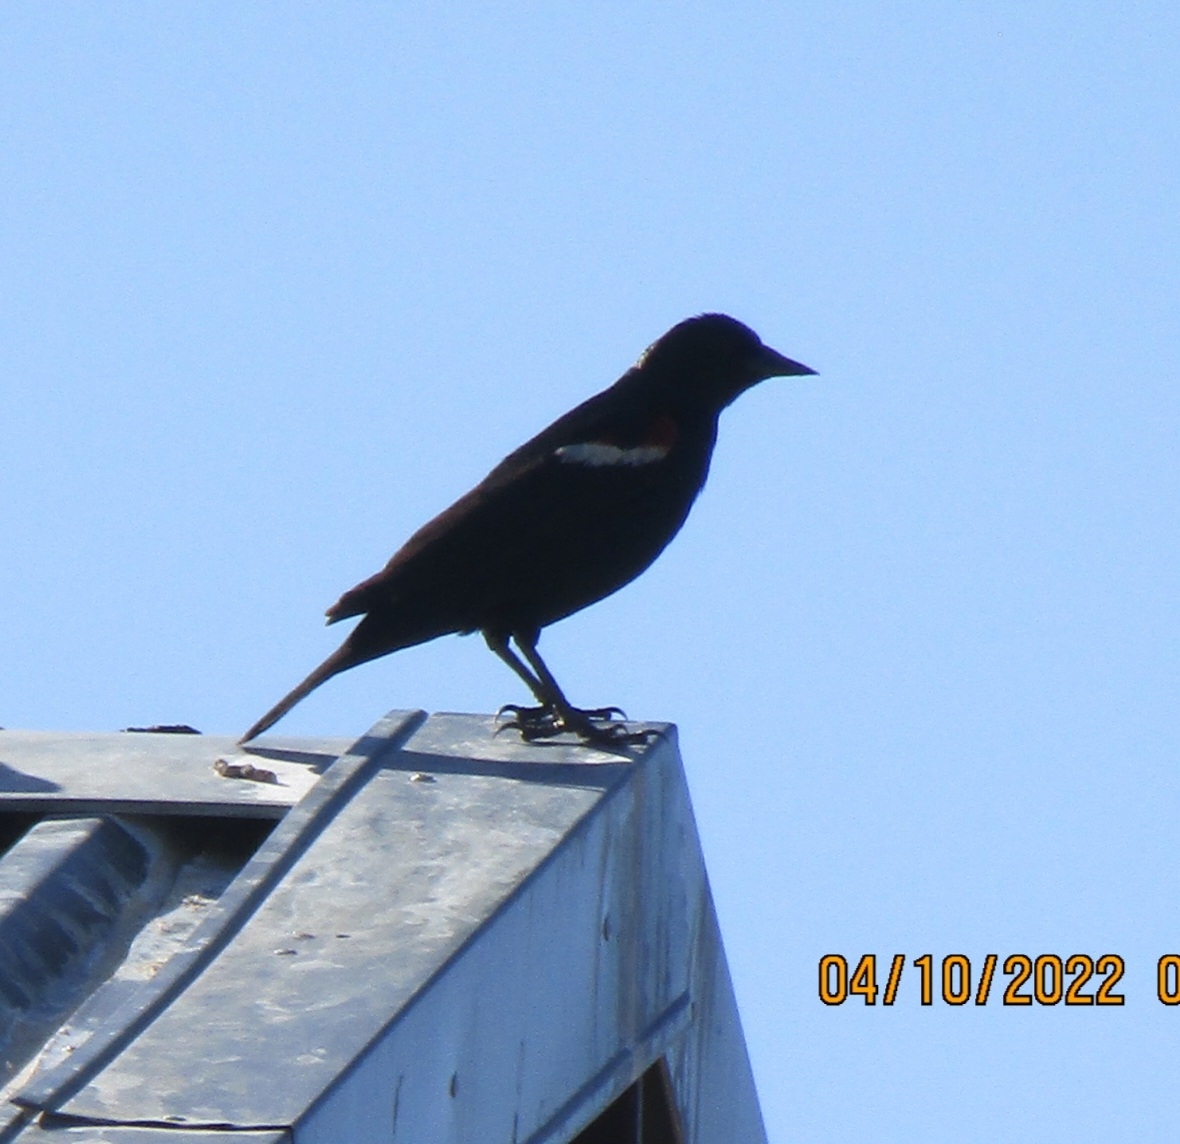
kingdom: Animalia
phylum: Chordata
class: Aves
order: Passeriformes
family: Icteridae
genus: Agelaius
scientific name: Agelaius tricolor
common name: Tricolored blackbird
